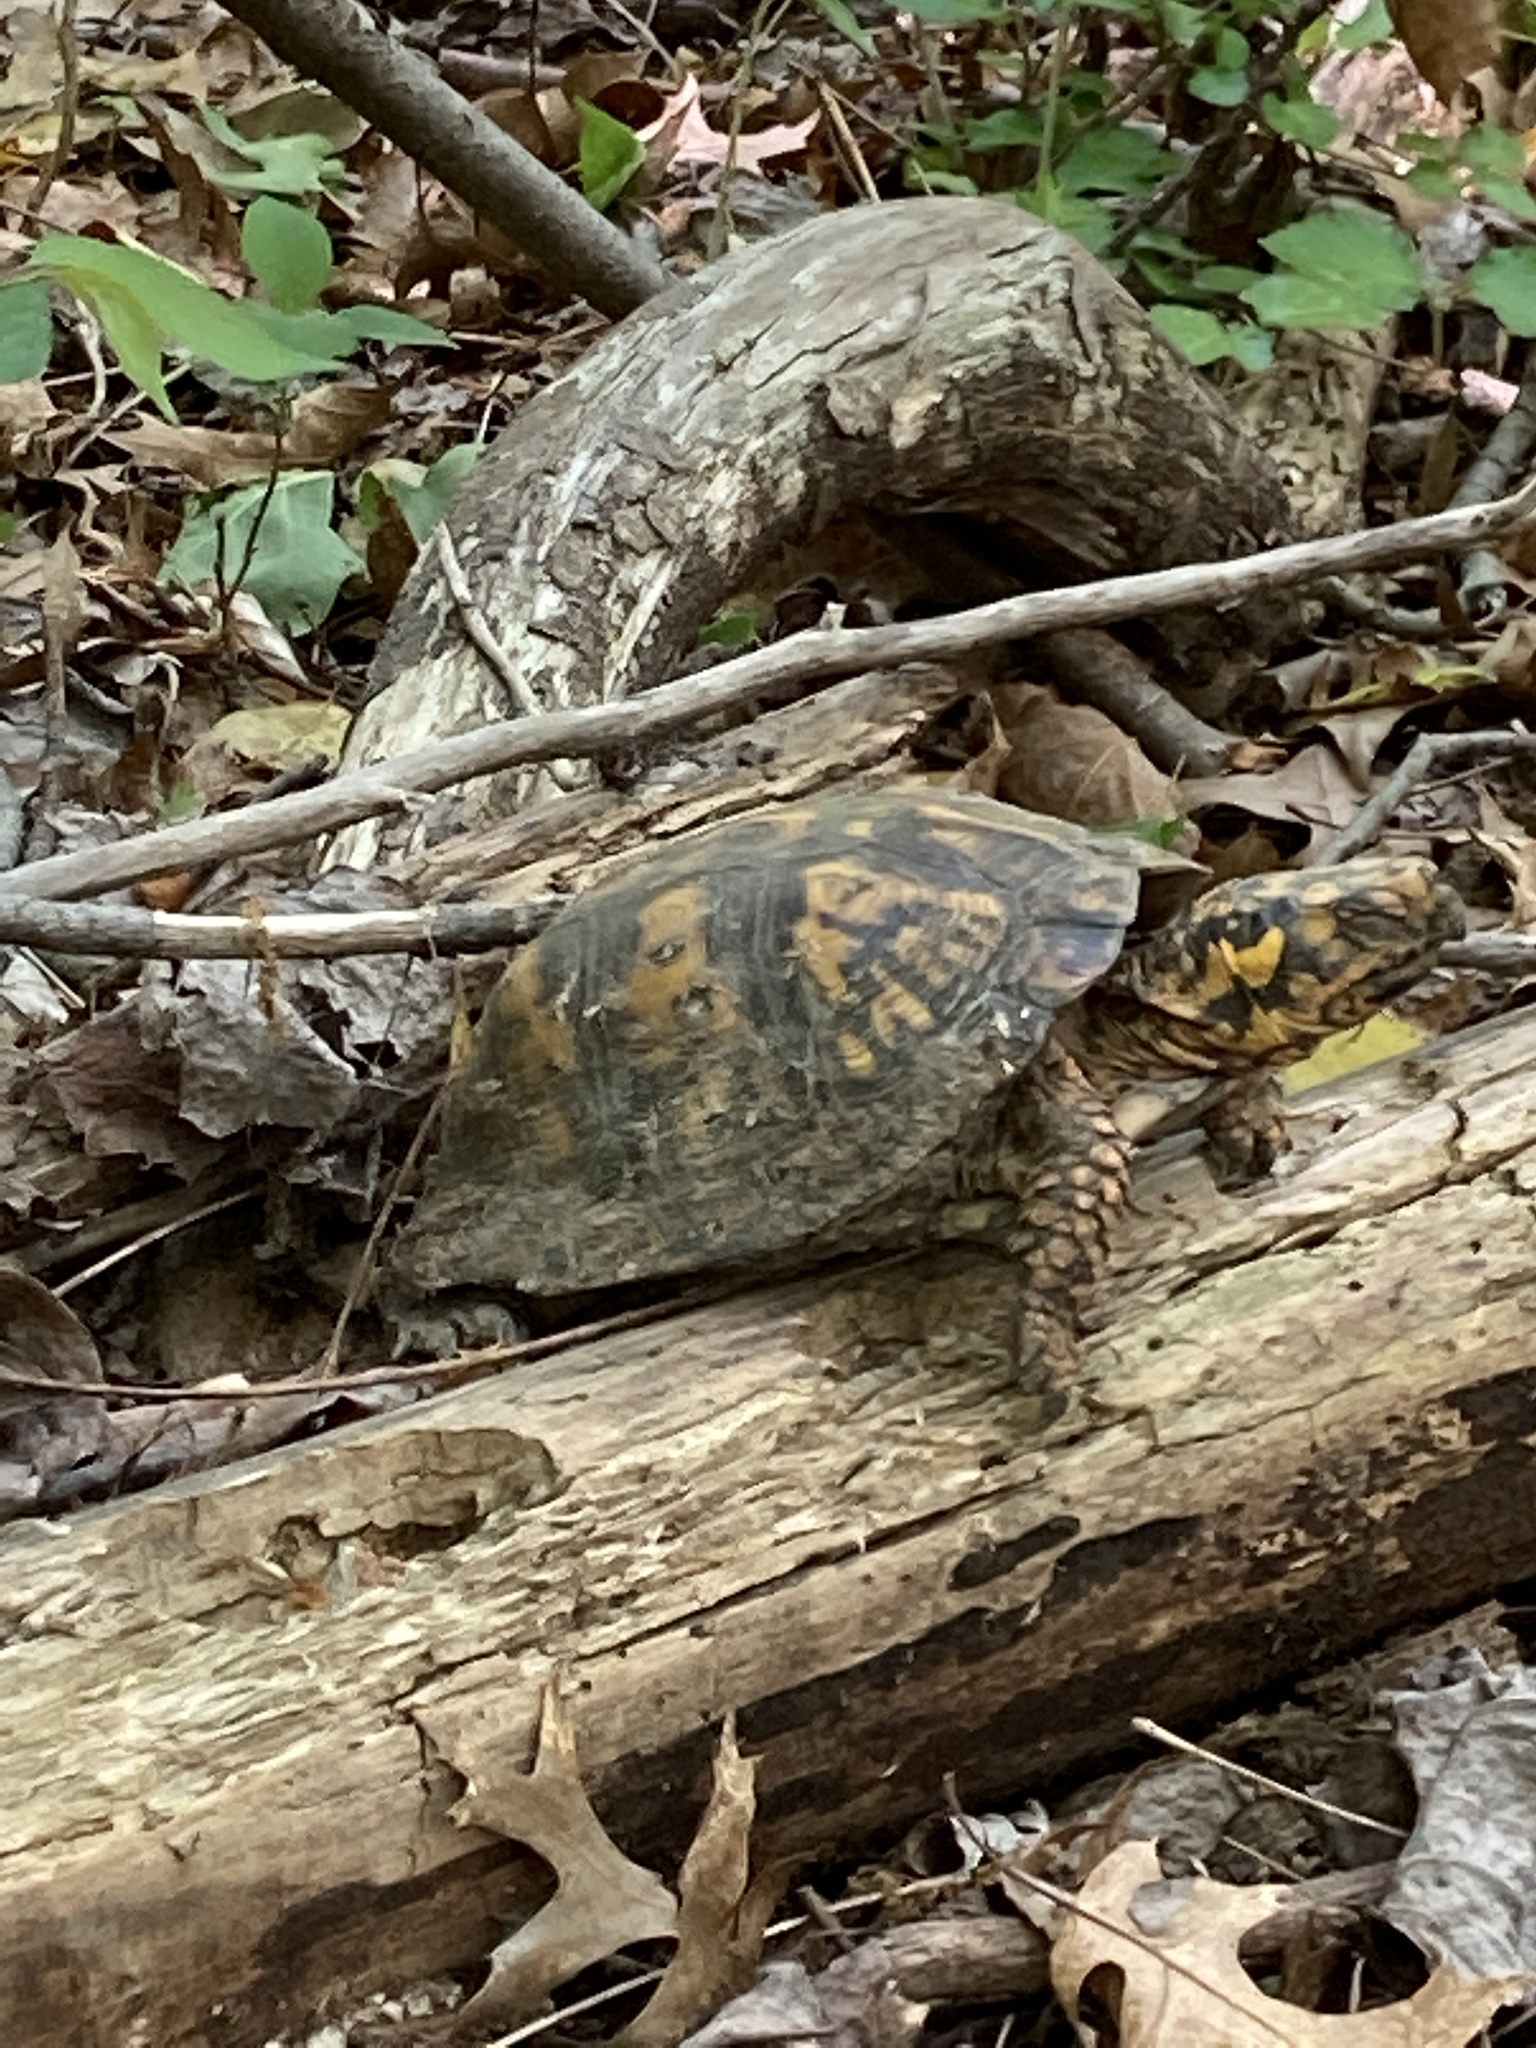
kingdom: Animalia
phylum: Chordata
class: Testudines
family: Emydidae
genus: Terrapene
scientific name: Terrapene carolina
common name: Common box turtle
